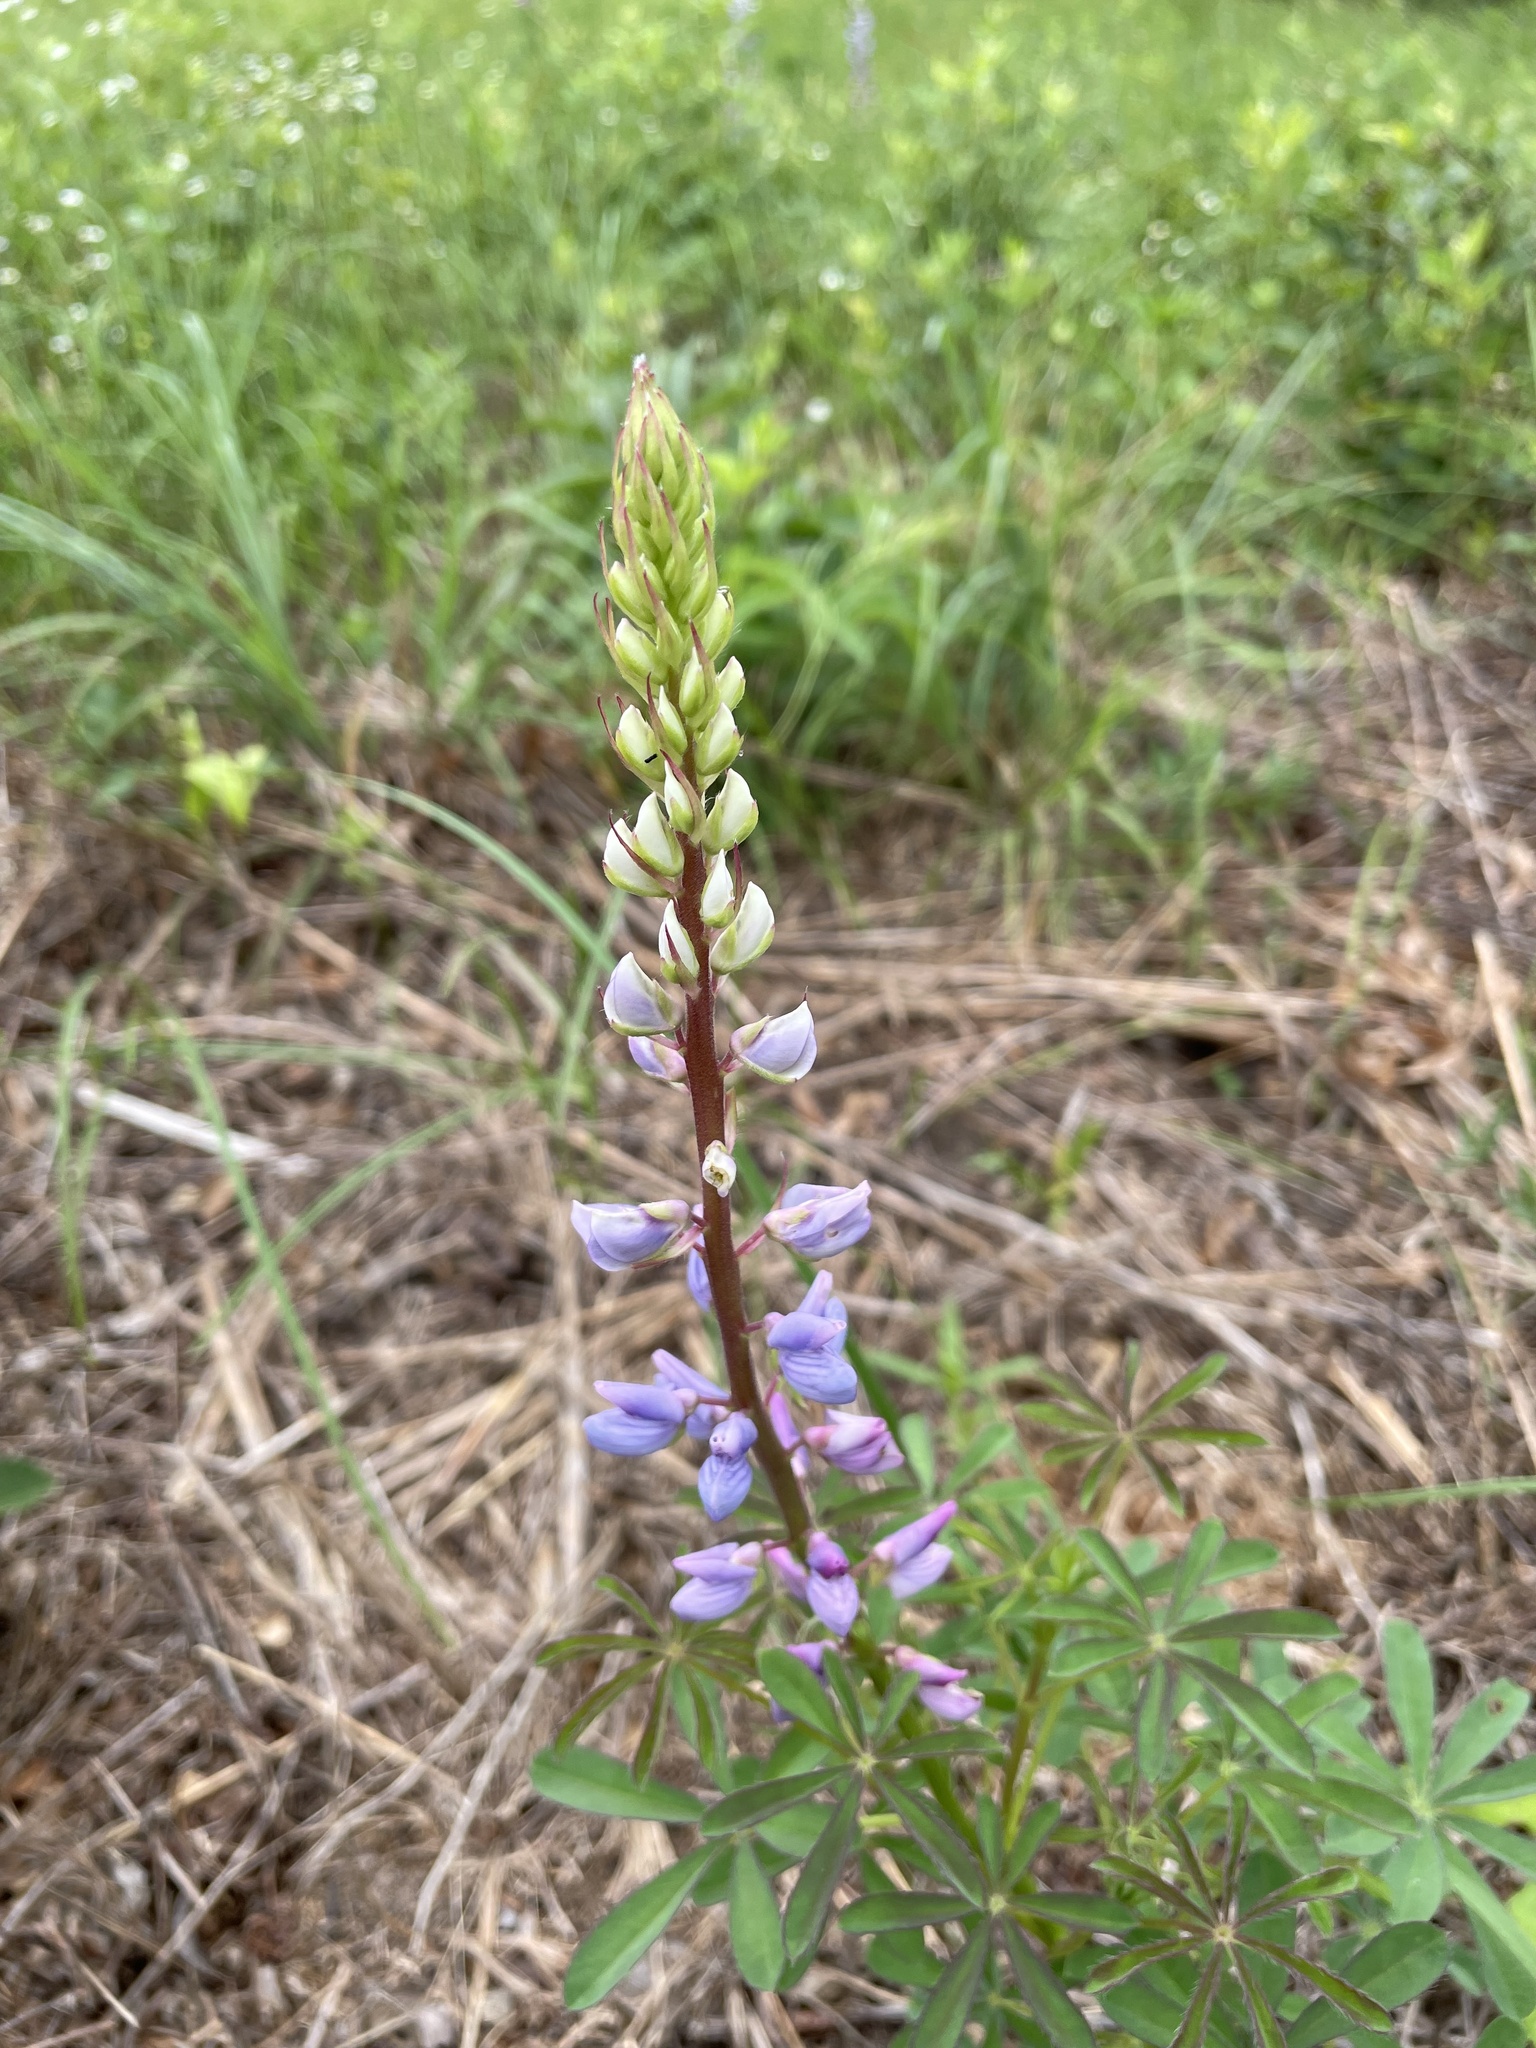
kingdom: Plantae
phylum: Tracheophyta
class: Magnoliopsida
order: Fabales
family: Fabaceae
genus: Lupinus
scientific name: Lupinus perennis
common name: Sundial lupine
